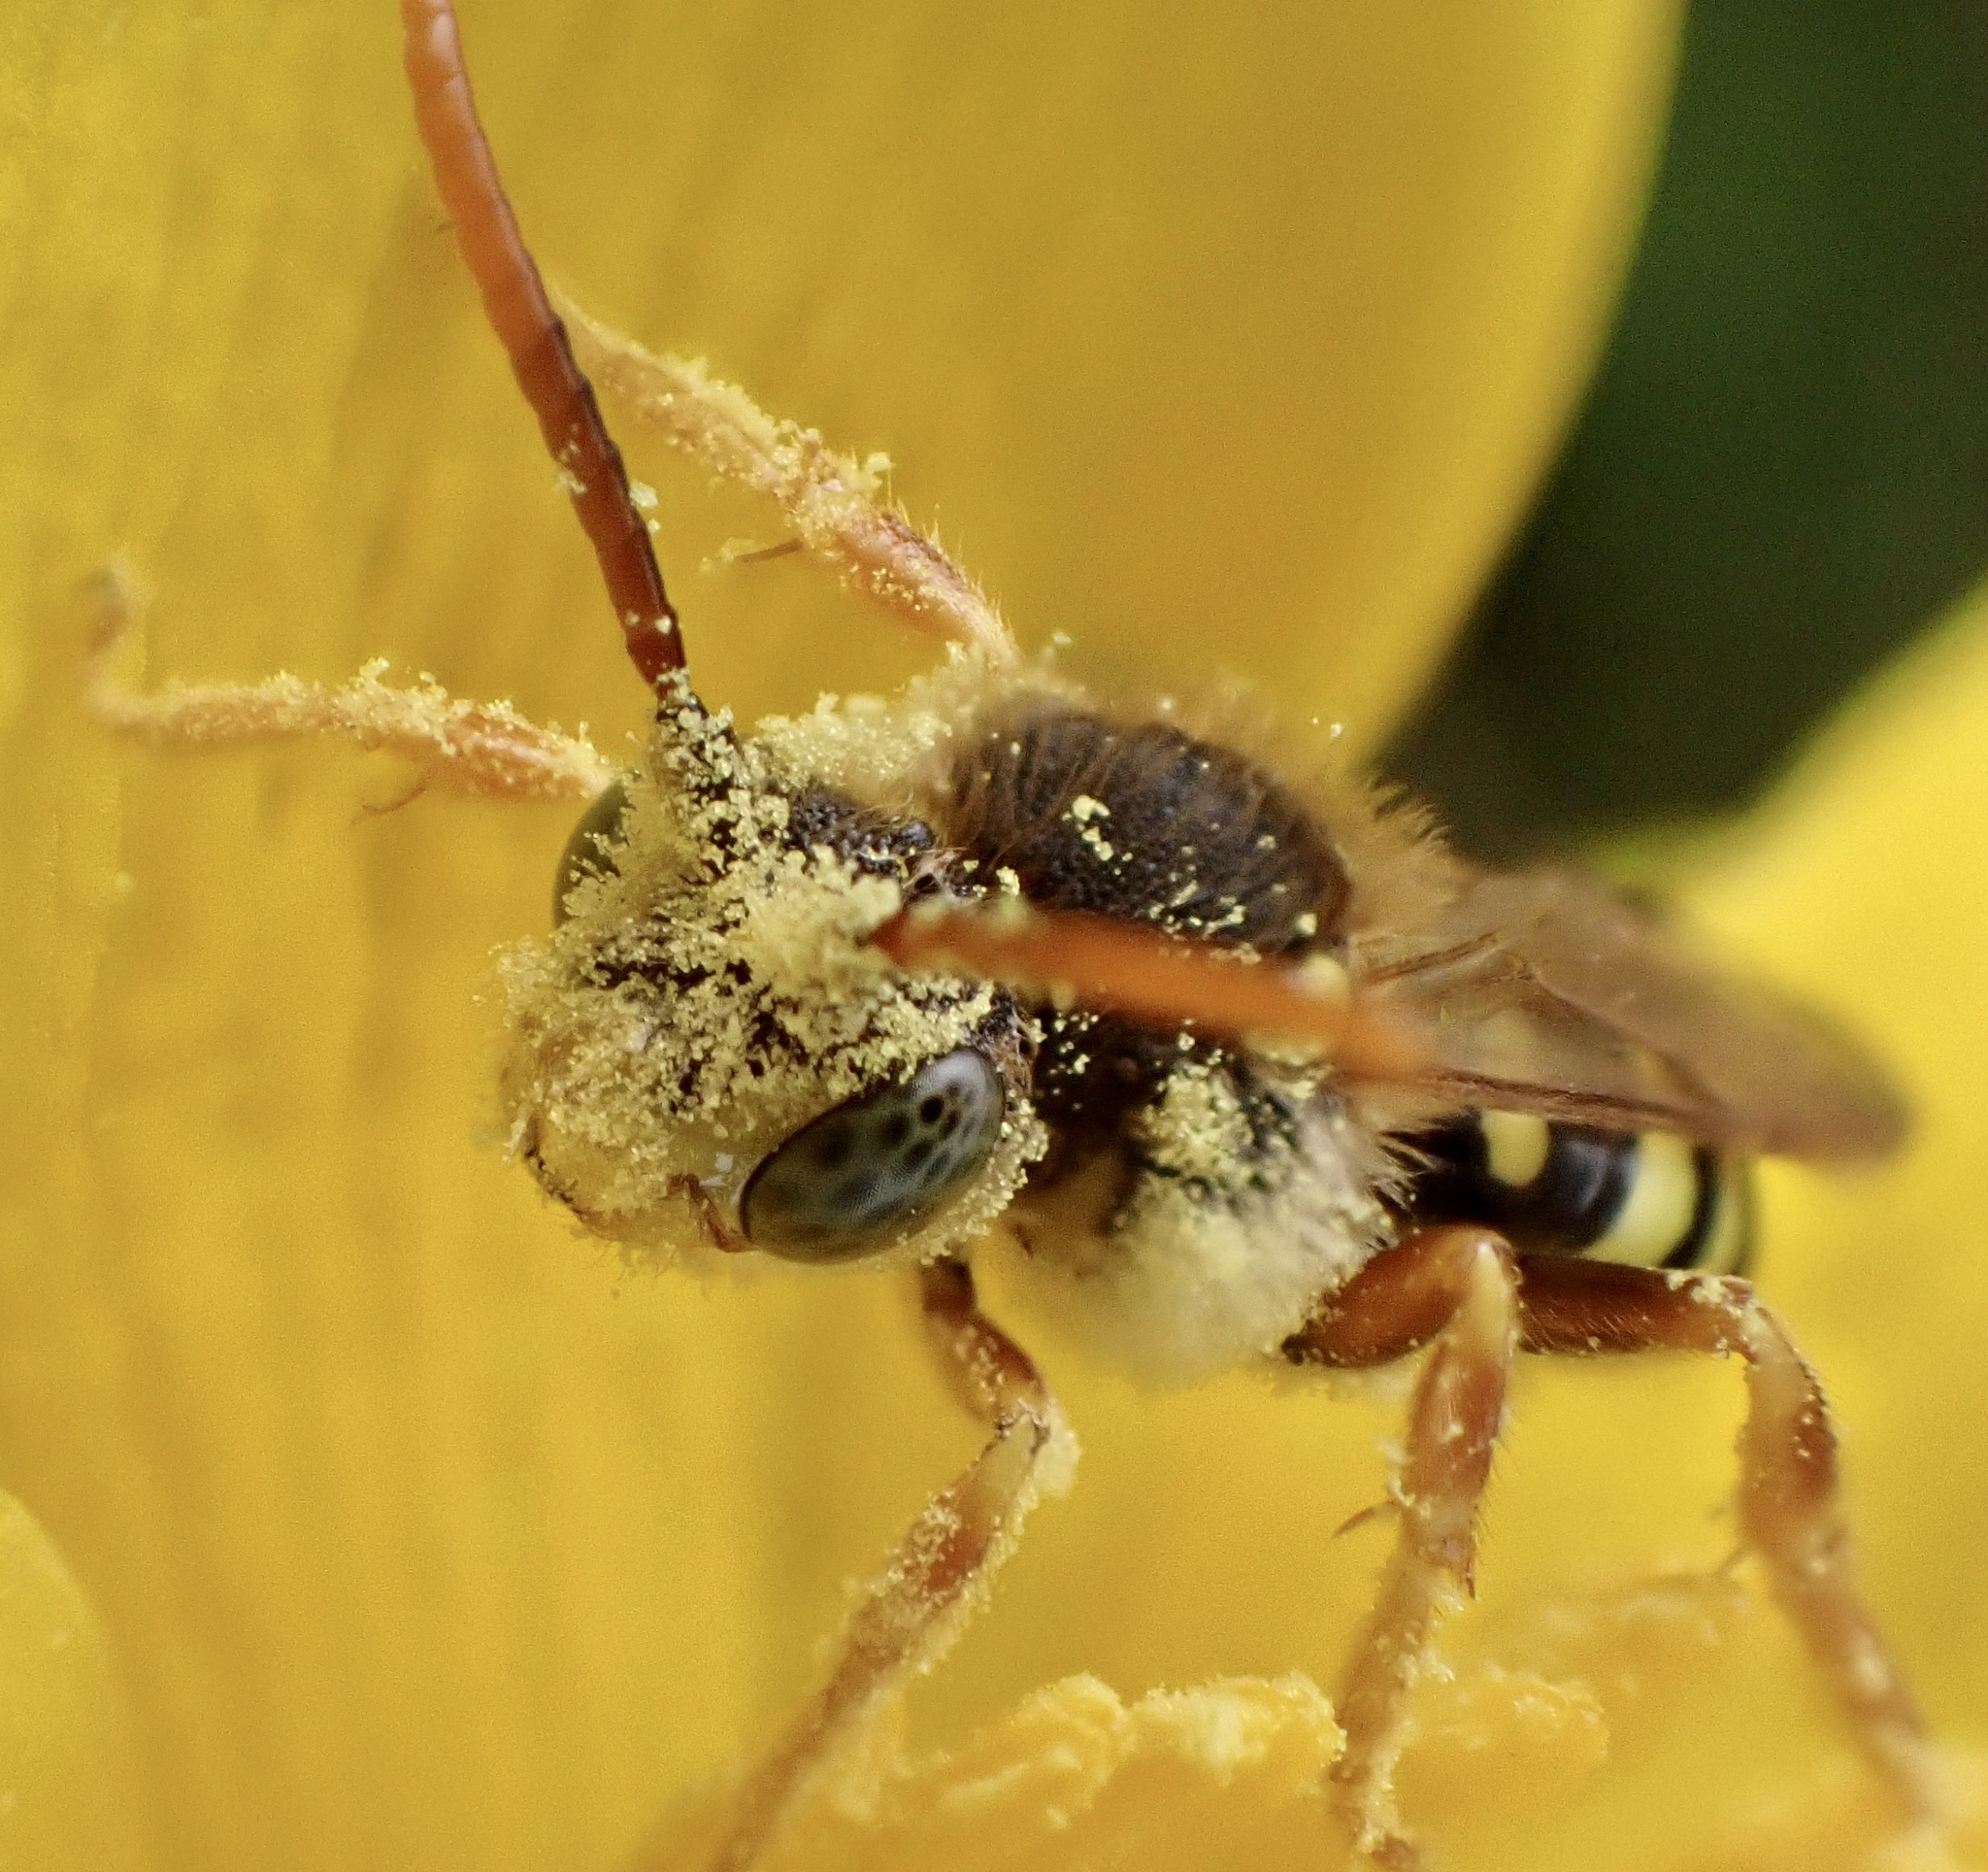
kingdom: Animalia
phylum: Arthropoda
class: Insecta
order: Hymenoptera
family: Apidae
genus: Nomada
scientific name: Nomada goodeniana
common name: Gooden's nomad bee
